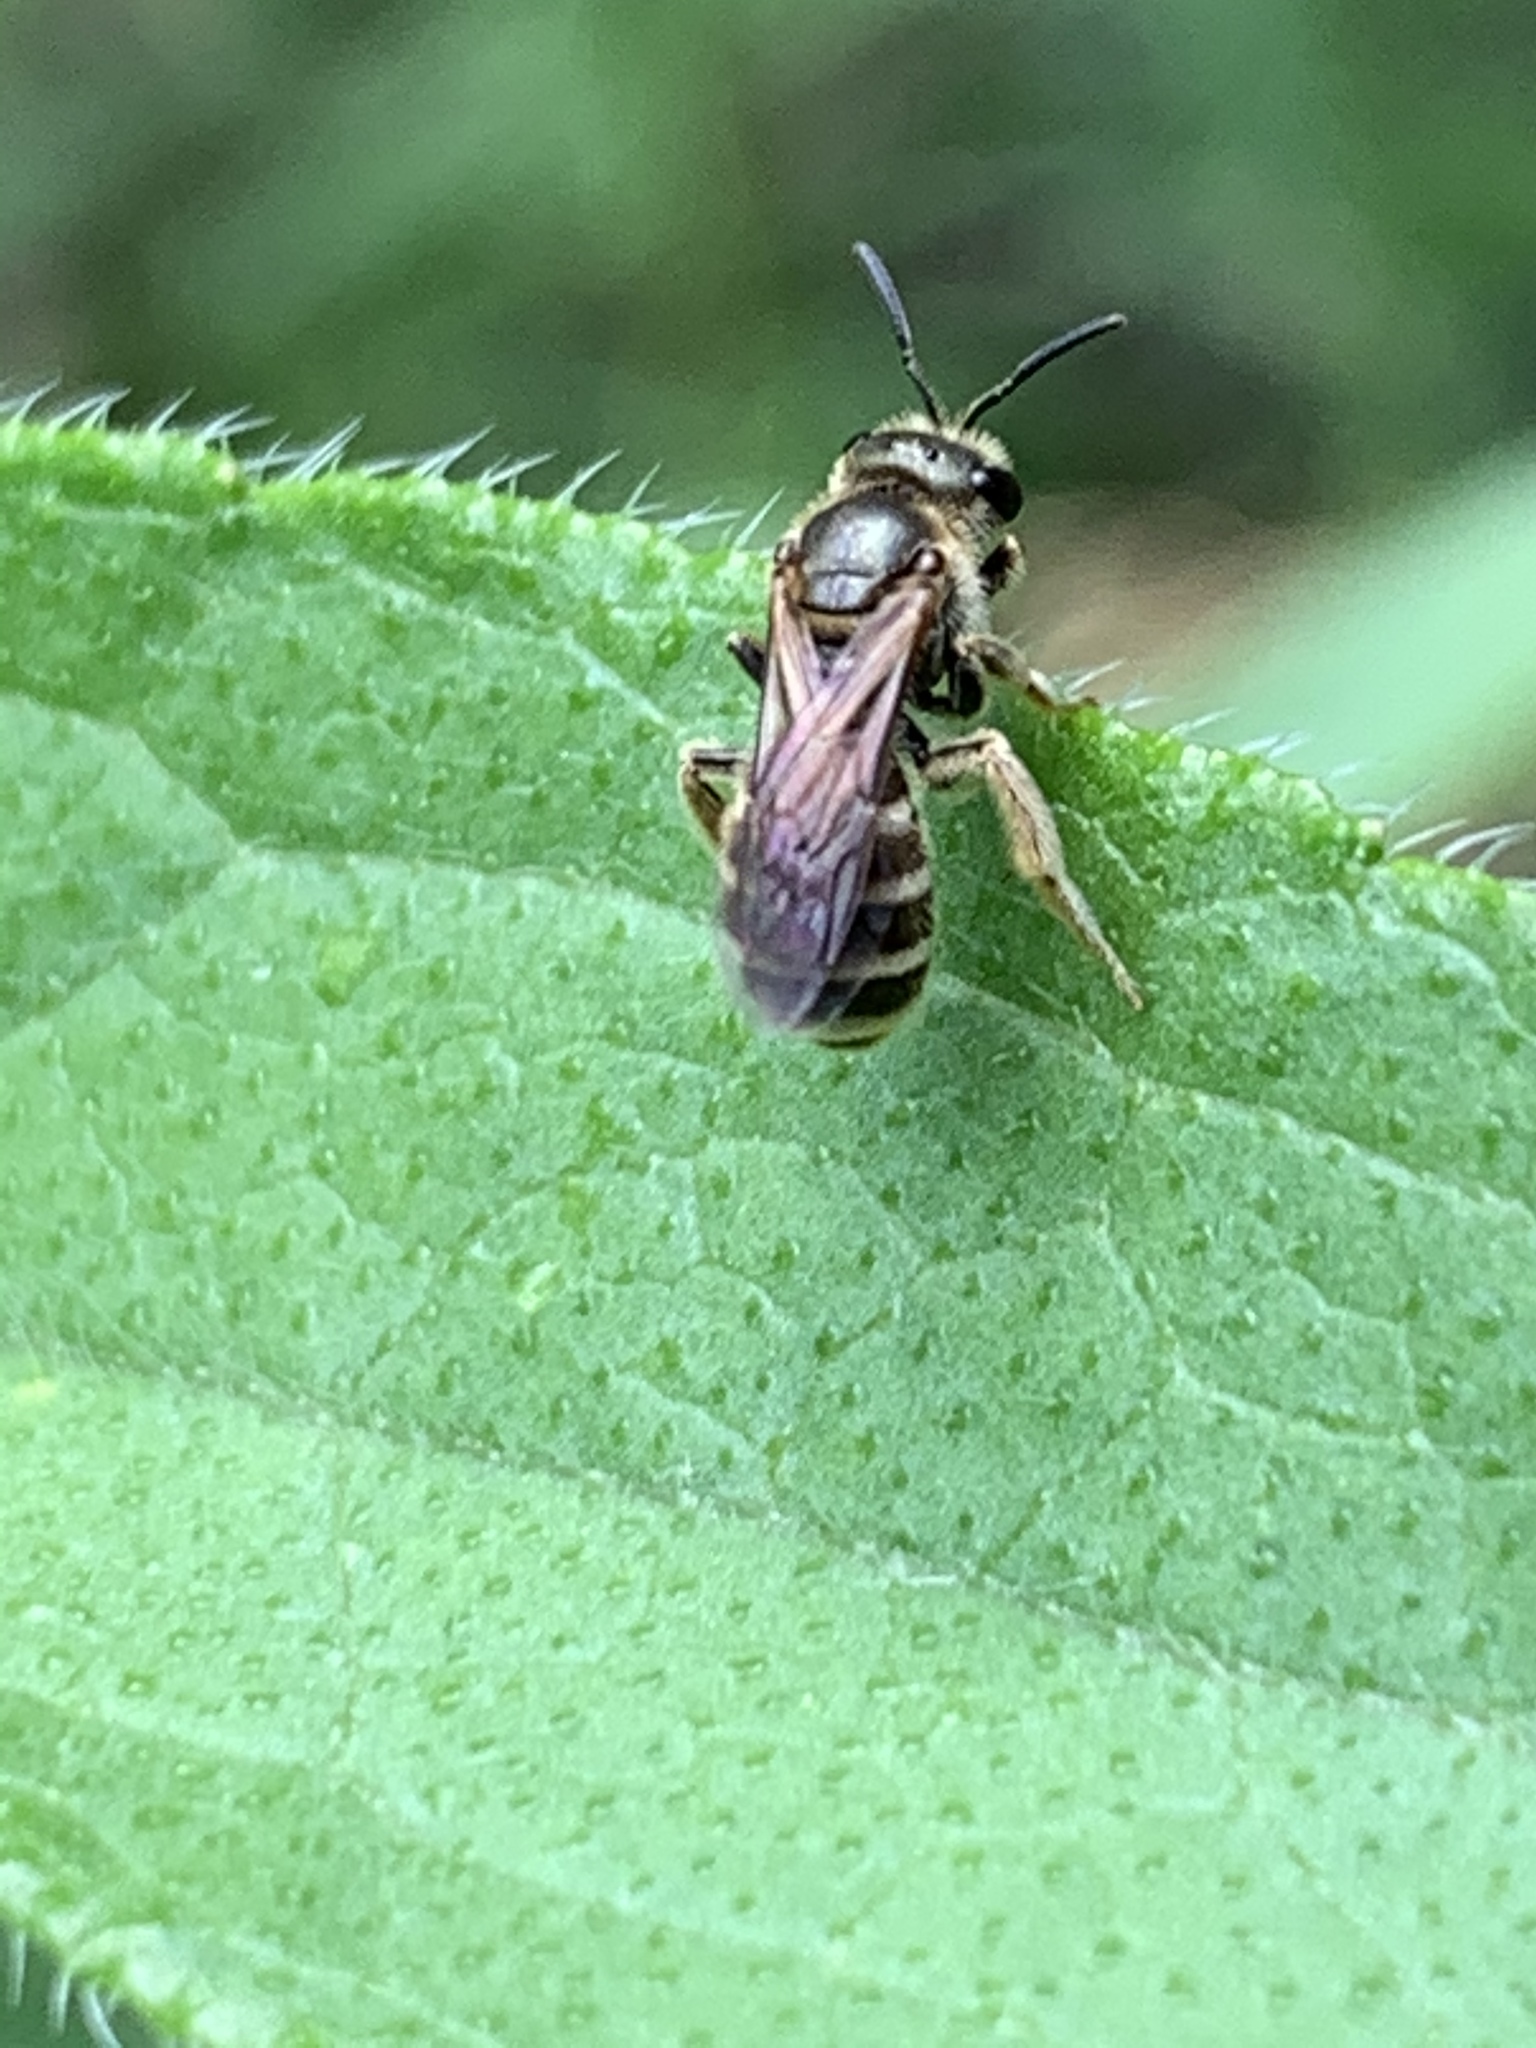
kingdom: Animalia
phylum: Arthropoda
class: Insecta
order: Hymenoptera
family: Halictidae
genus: Halictus
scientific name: Halictus confusus
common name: Southern bronze furrow bee
